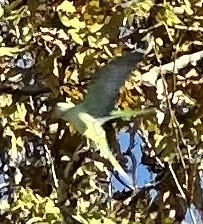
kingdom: Animalia
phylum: Chordata
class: Aves
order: Psittaciformes
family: Psittacidae
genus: Psittacula
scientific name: Psittacula eupatria
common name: Alexandrine parakeet
